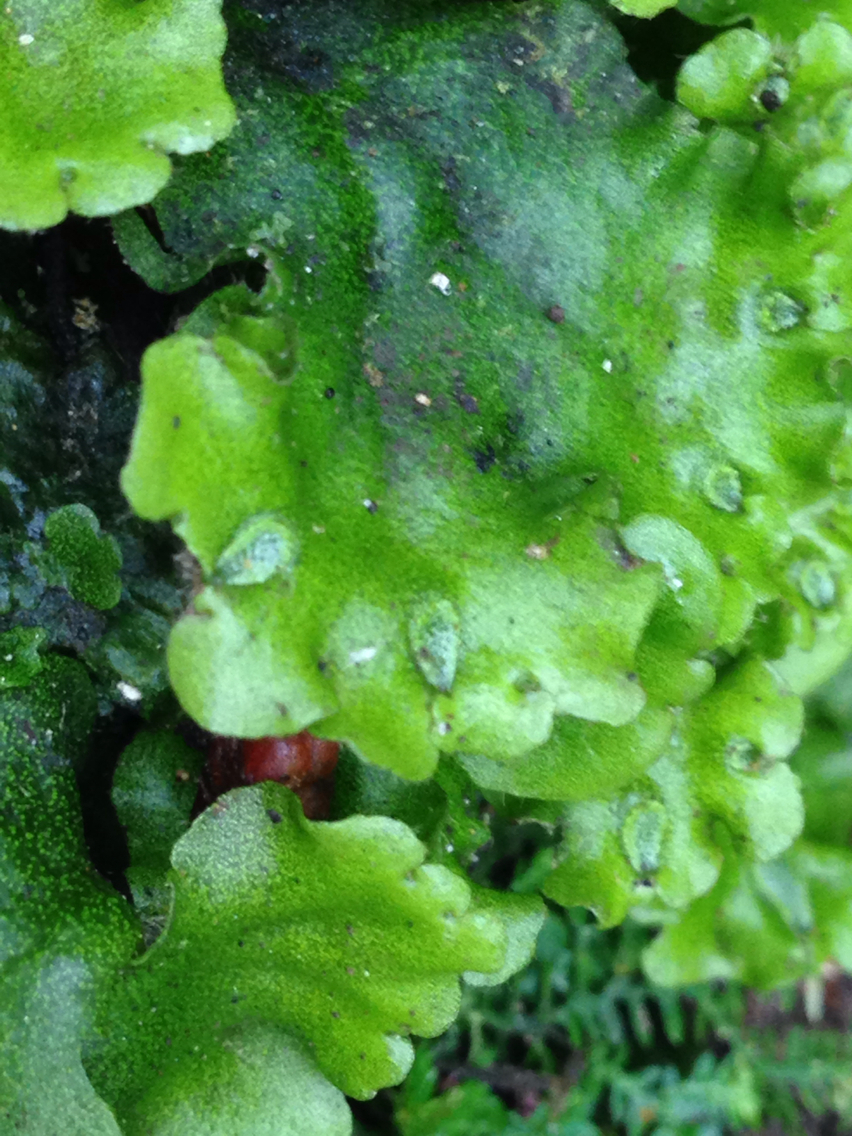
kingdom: Plantae
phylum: Marchantiophyta
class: Marchantiopsida
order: Marchantiales
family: Monocleaceae
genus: Monoclea
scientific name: Monoclea gottschei
